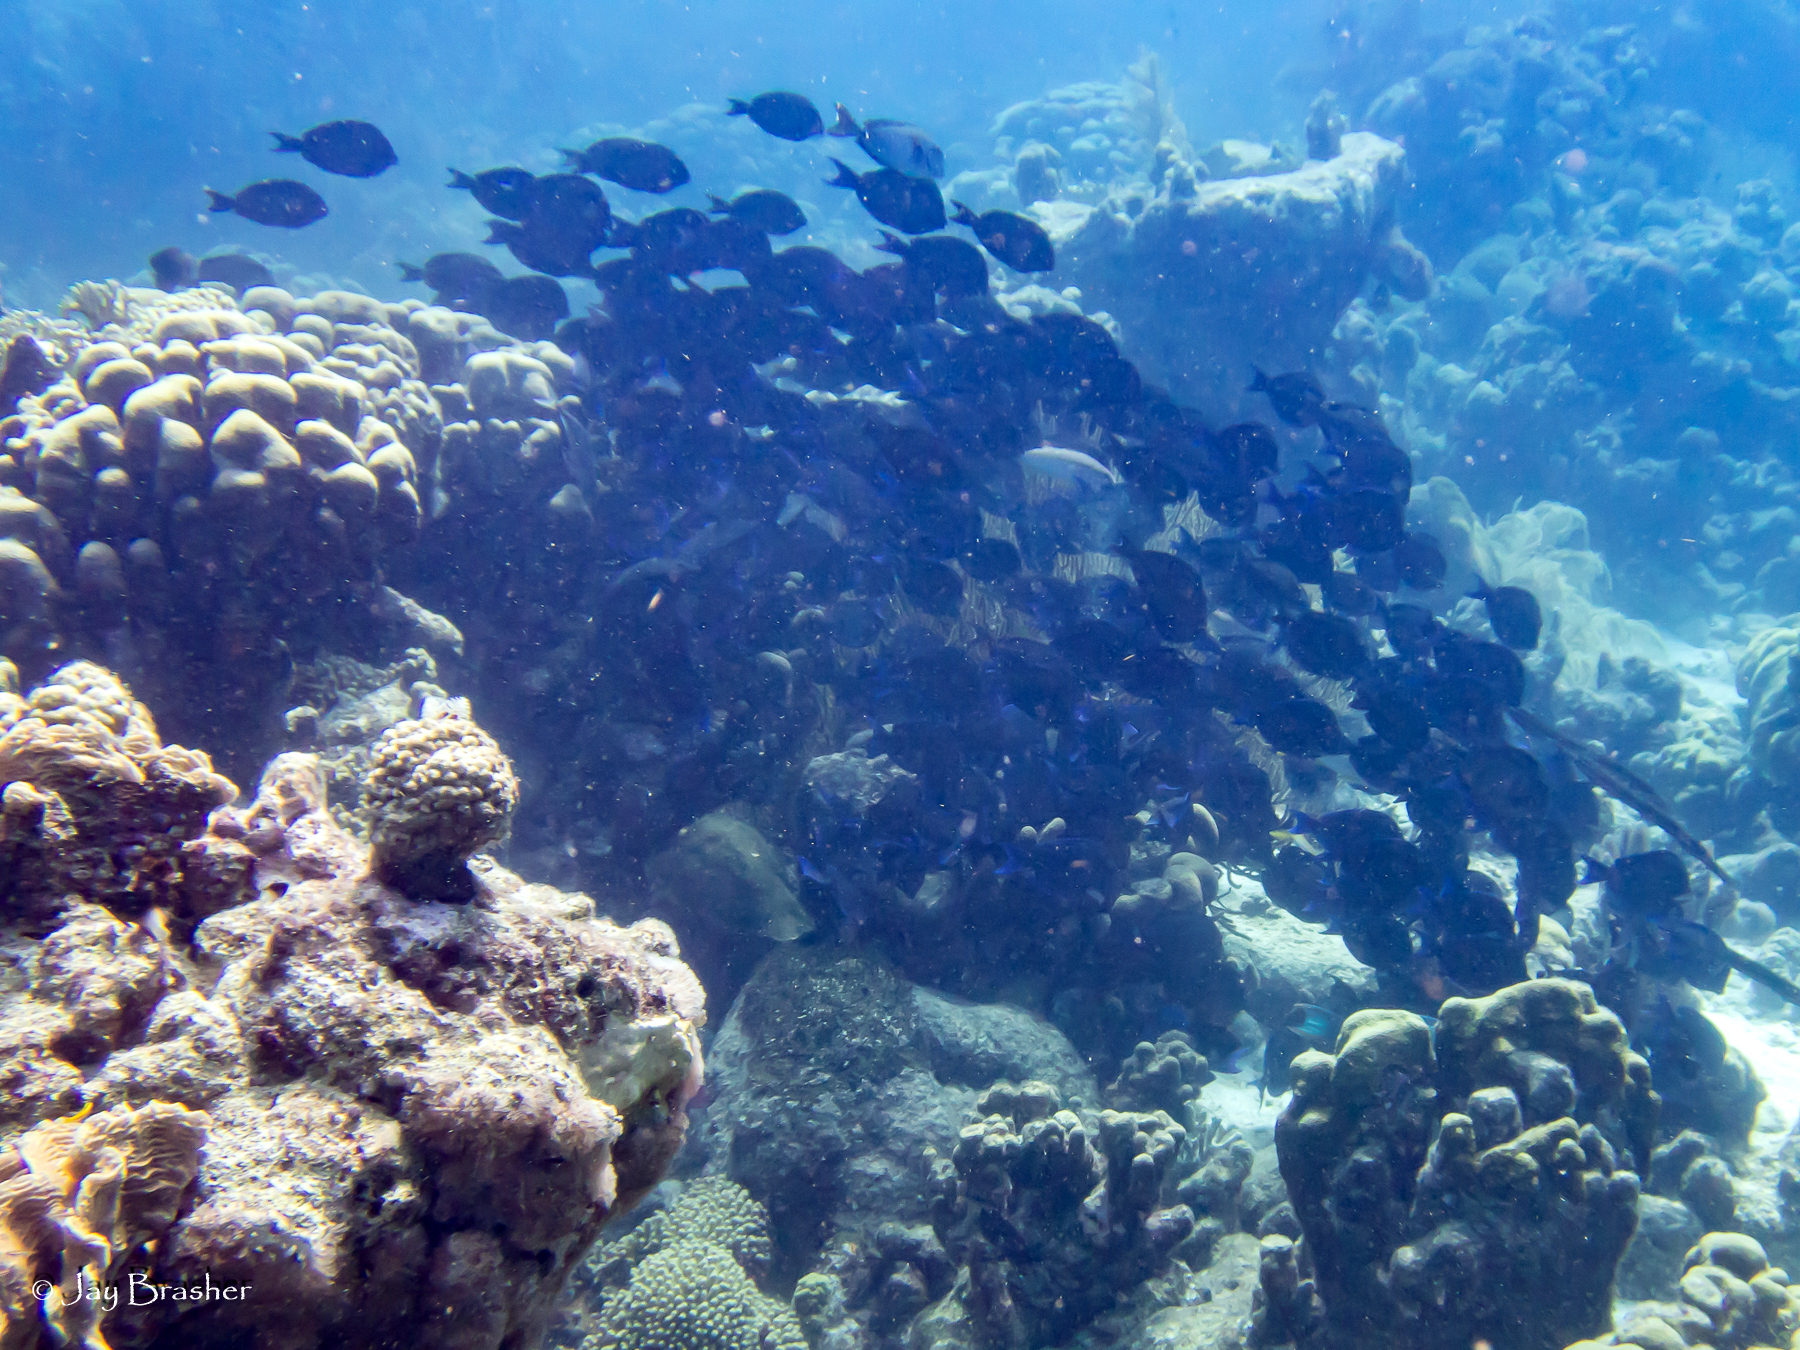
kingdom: Animalia
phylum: Chordata
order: Perciformes
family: Acanthuridae
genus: Acanthurus
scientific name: Acanthurus coeruleus
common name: Blue tang
